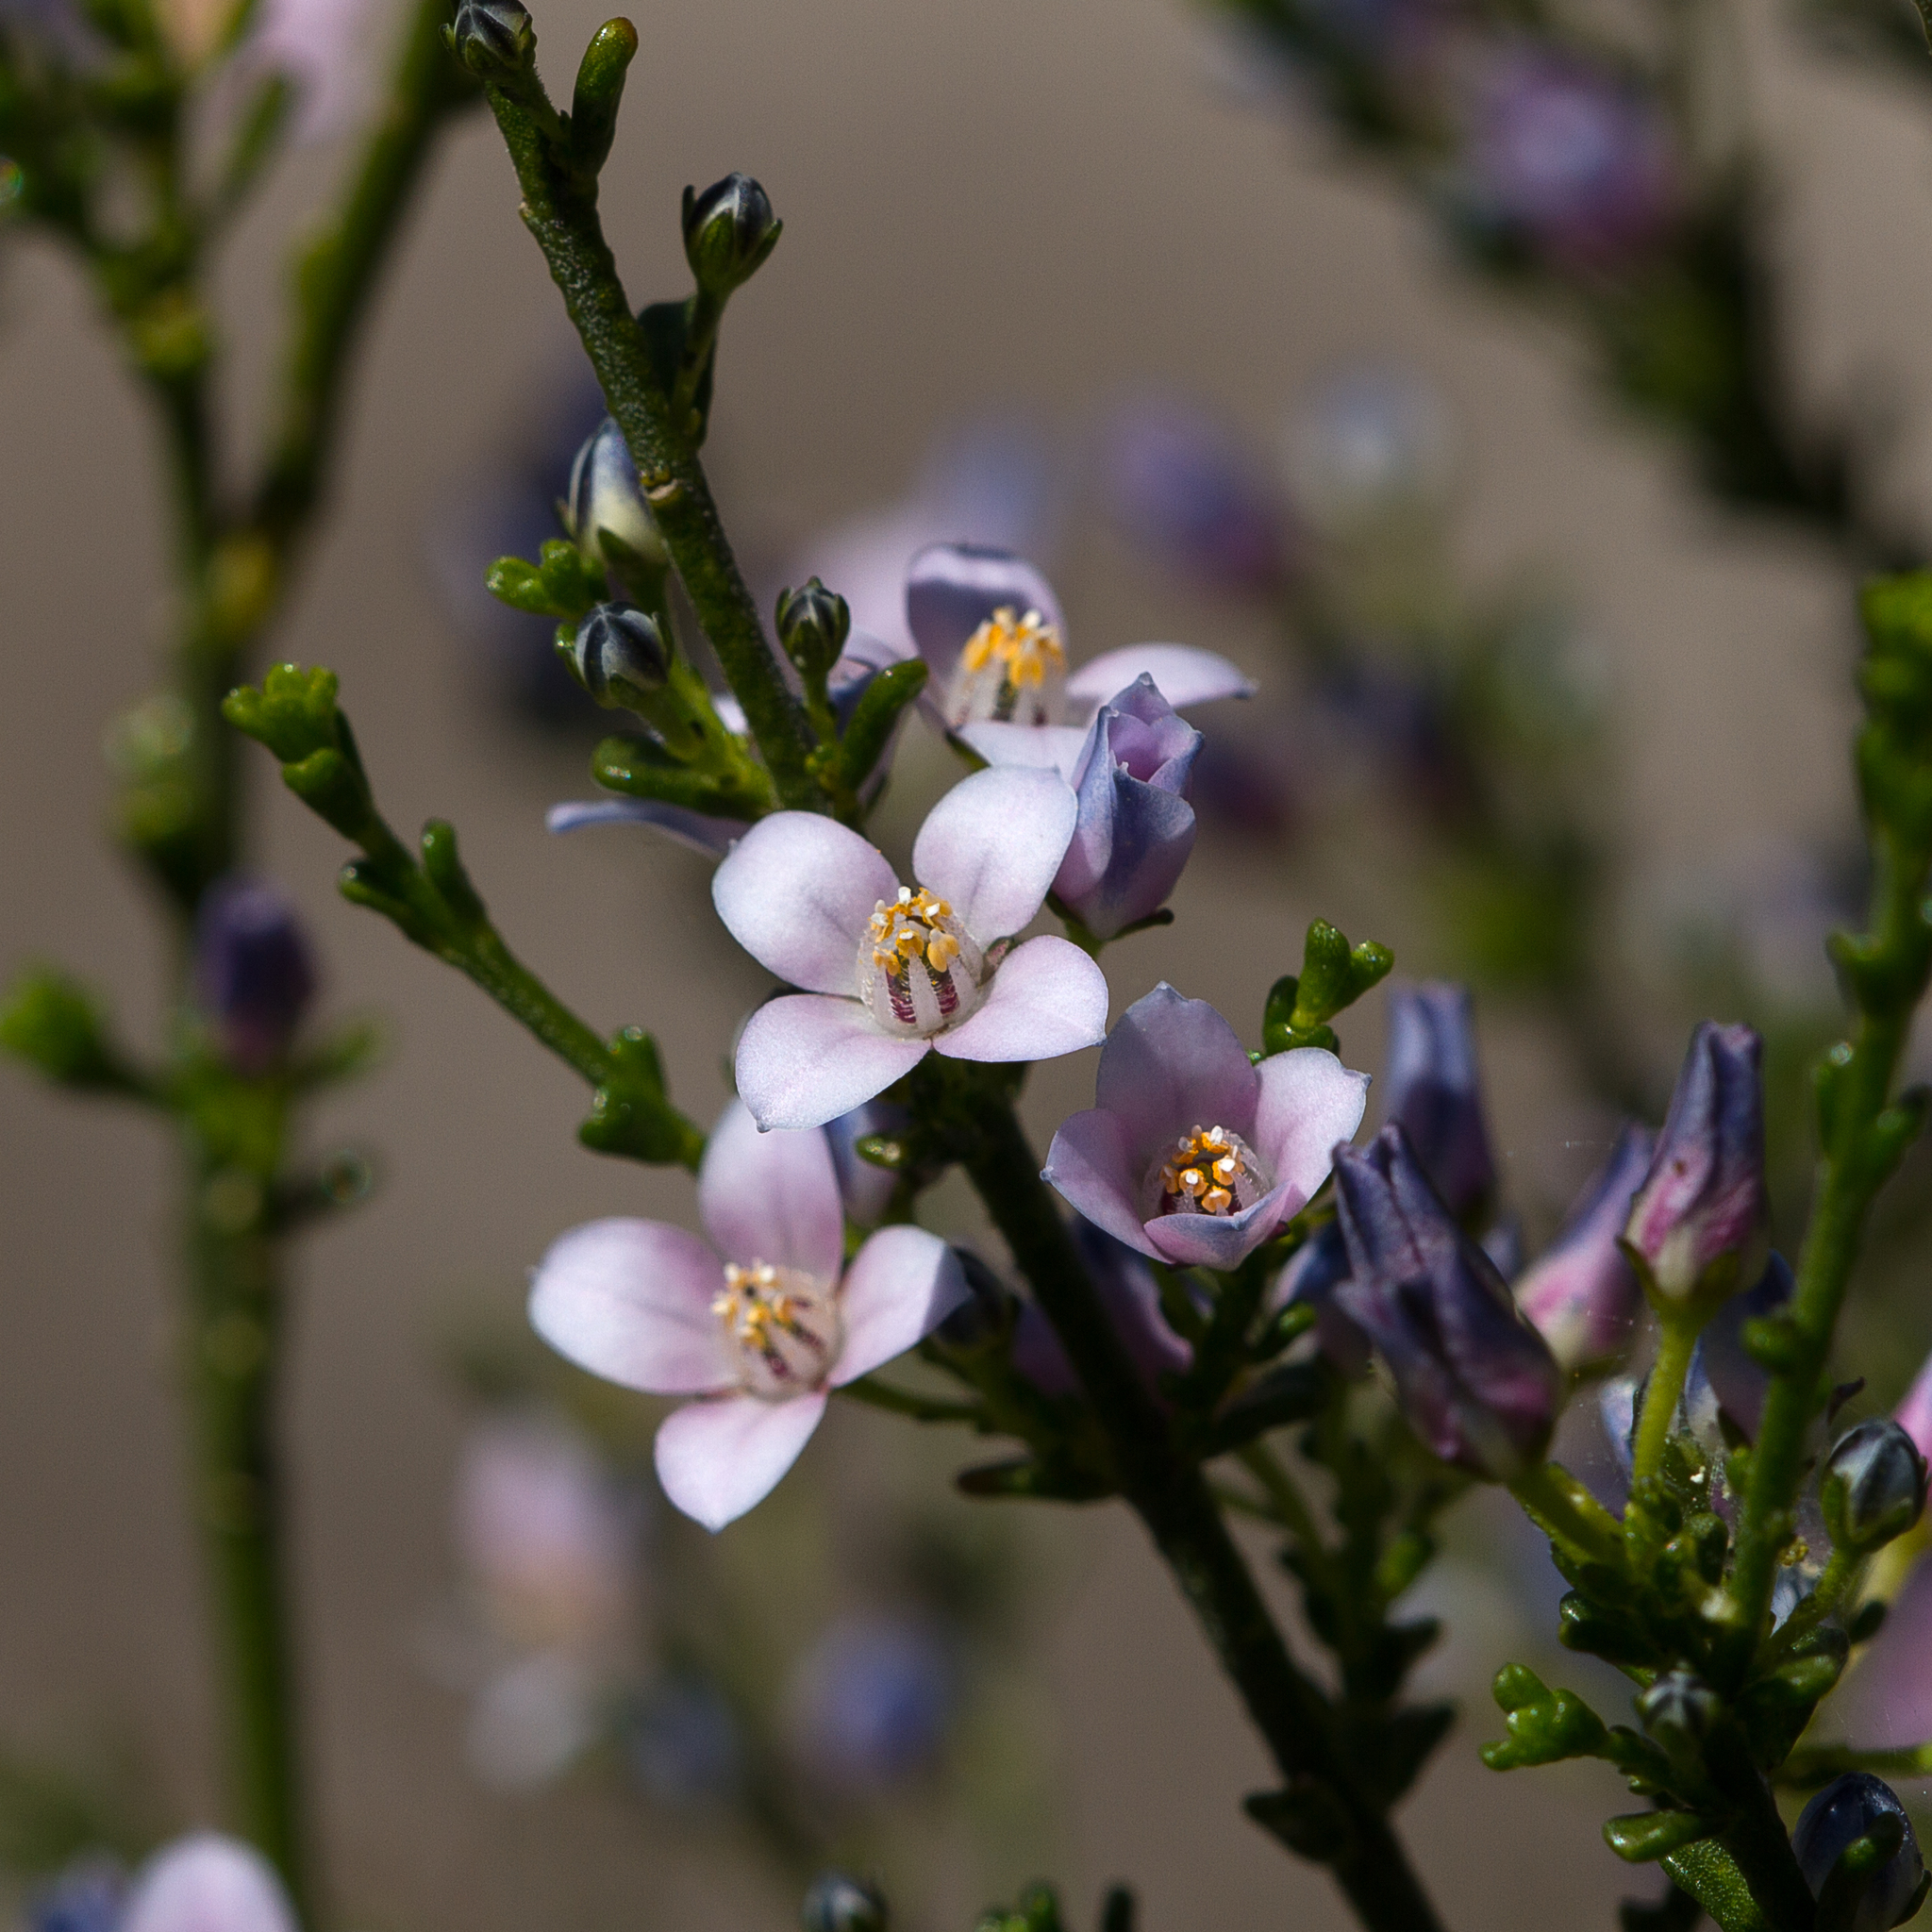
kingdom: Plantae
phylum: Tracheophyta
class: Magnoliopsida
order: Sapindales
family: Rutaceae
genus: Cyanothamnus
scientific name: Cyanothamnus coerulescens
